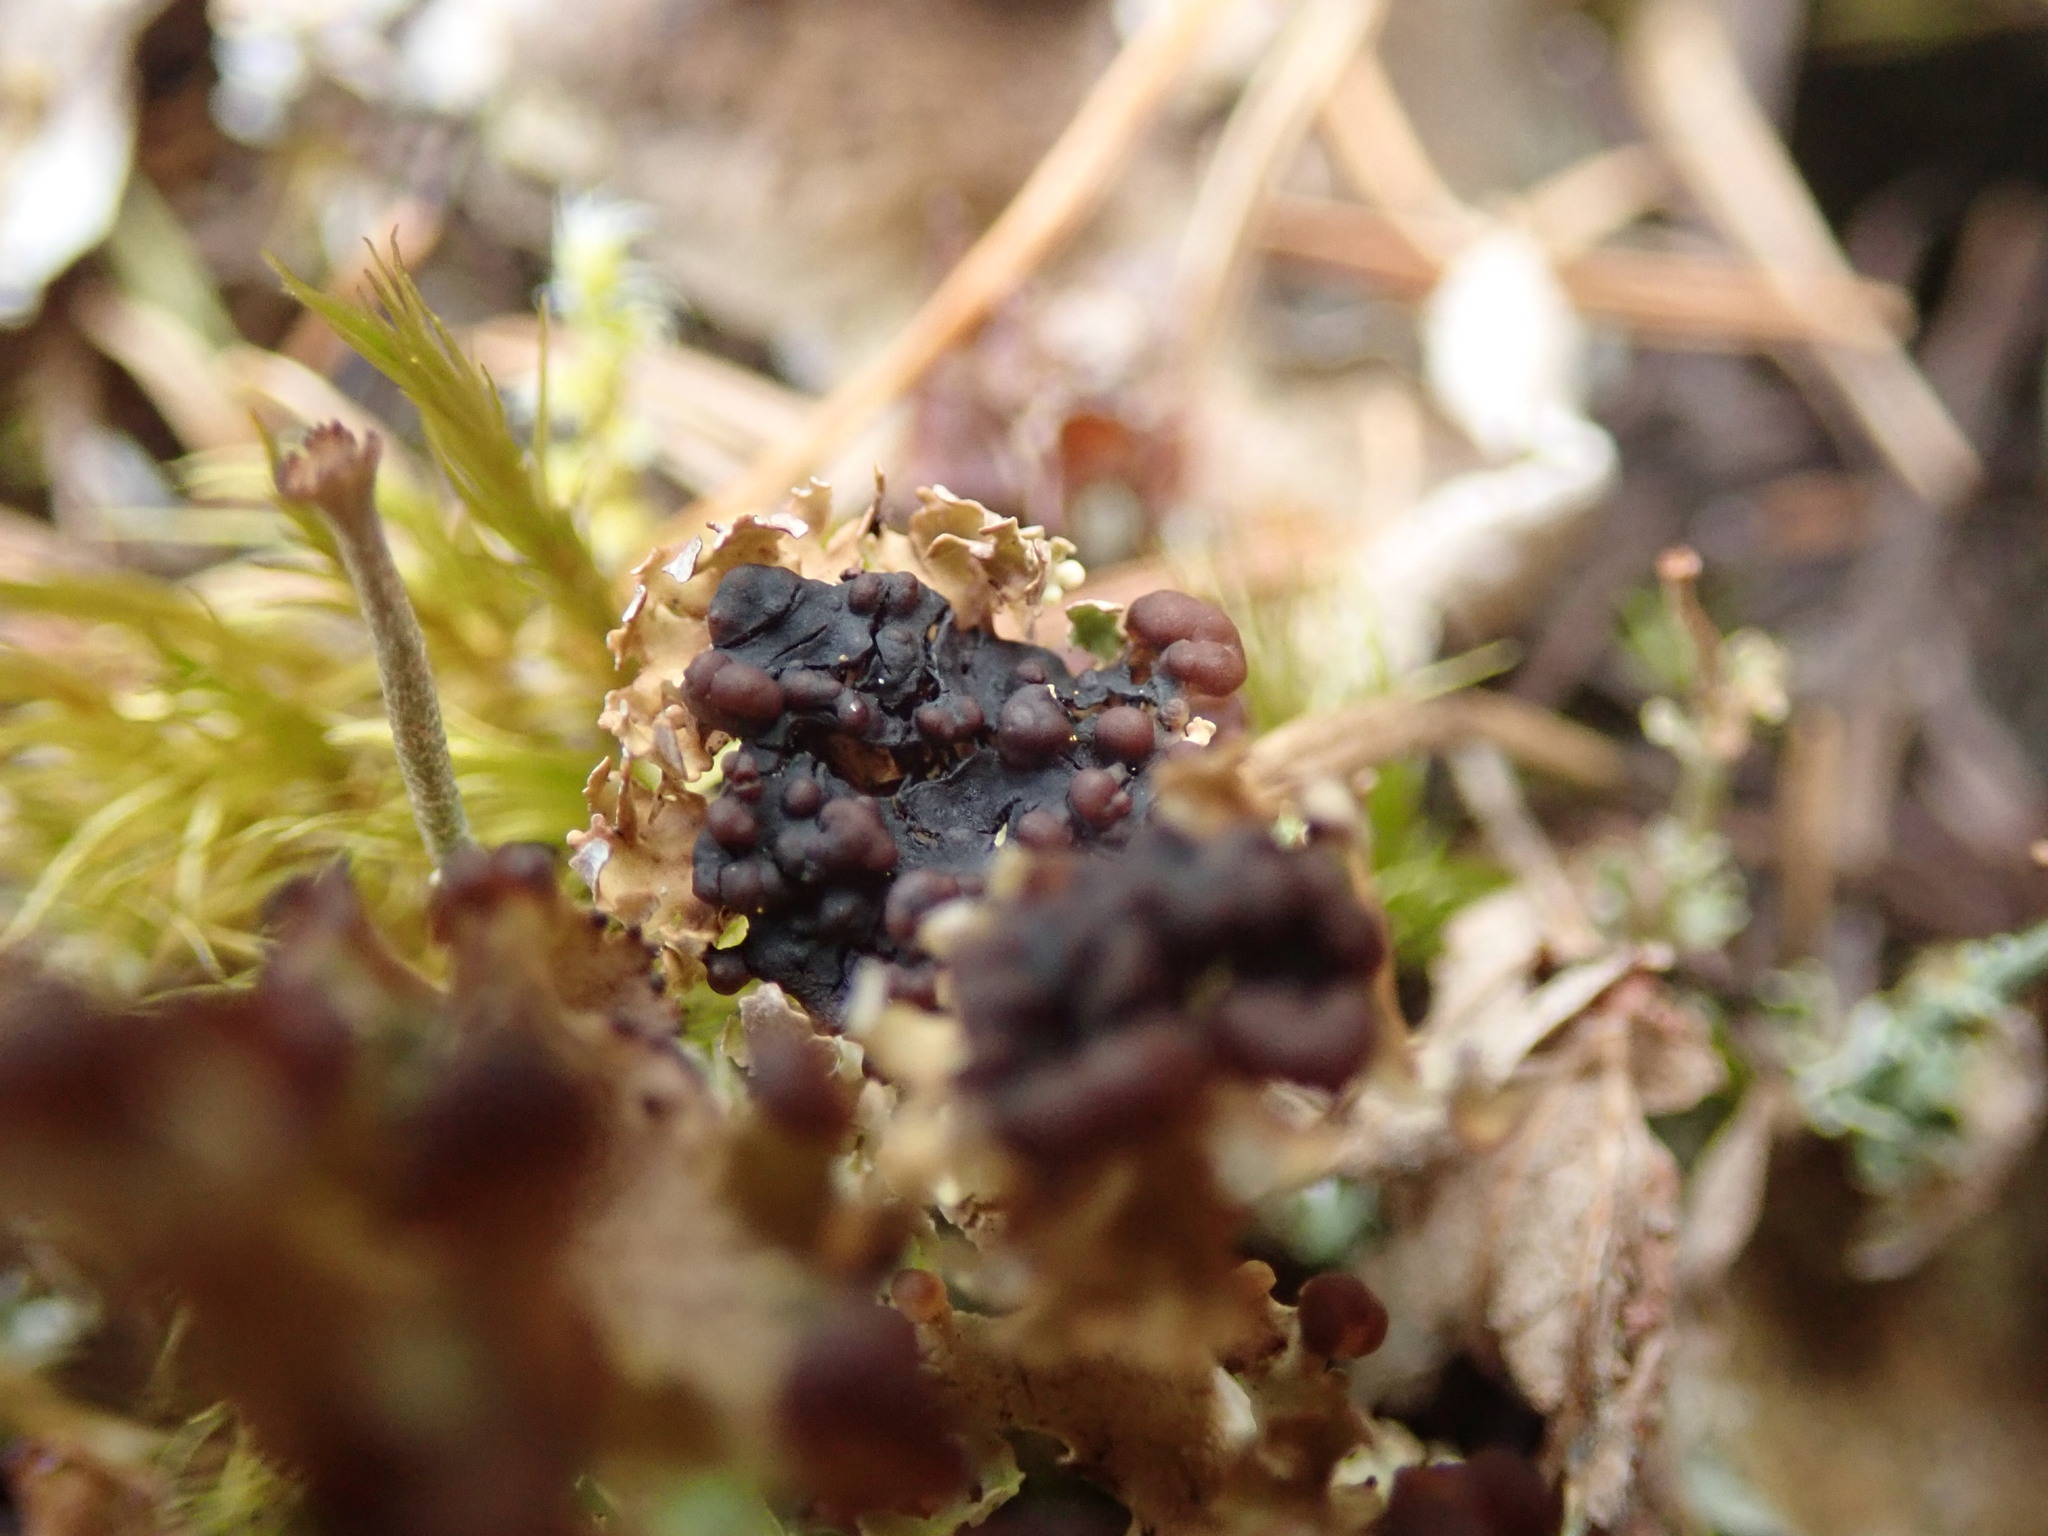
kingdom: Fungi
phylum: Ascomycota
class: Lecanoromycetes
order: Lecanorales
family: Cladoniaceae
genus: Cladonia
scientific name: Cladonia ecmocyna
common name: Frosted cup lichen
